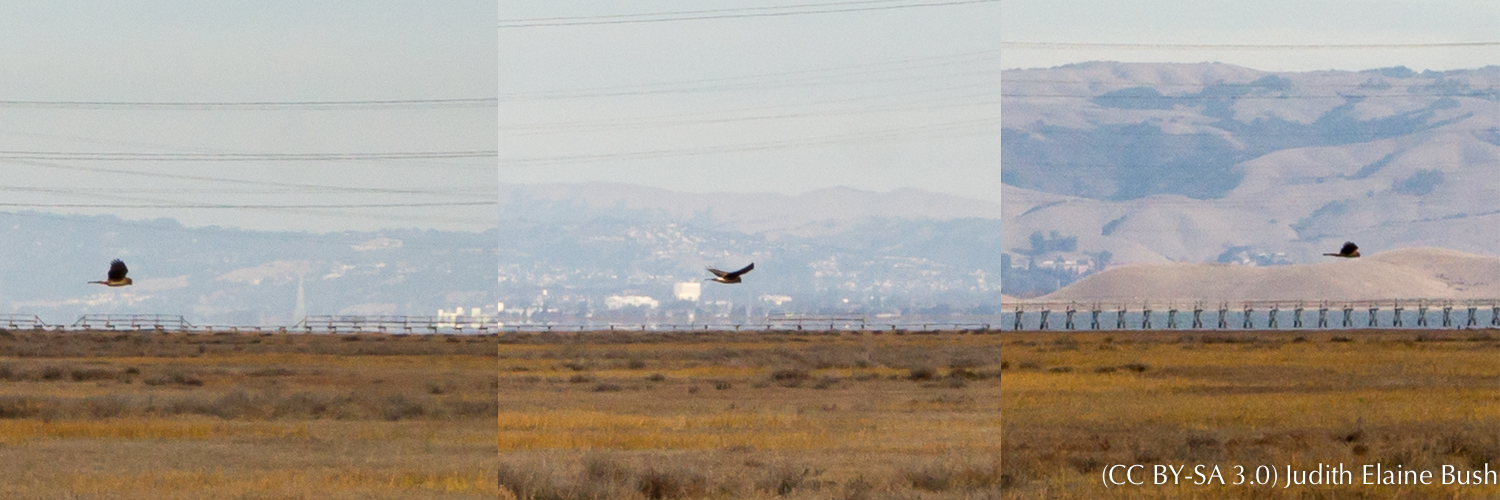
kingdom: Animalia
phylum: Chordata
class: Aves
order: Accipitriformes
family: Accipitridae
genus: Circus
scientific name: Circus cyaneus
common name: Hen harrier
